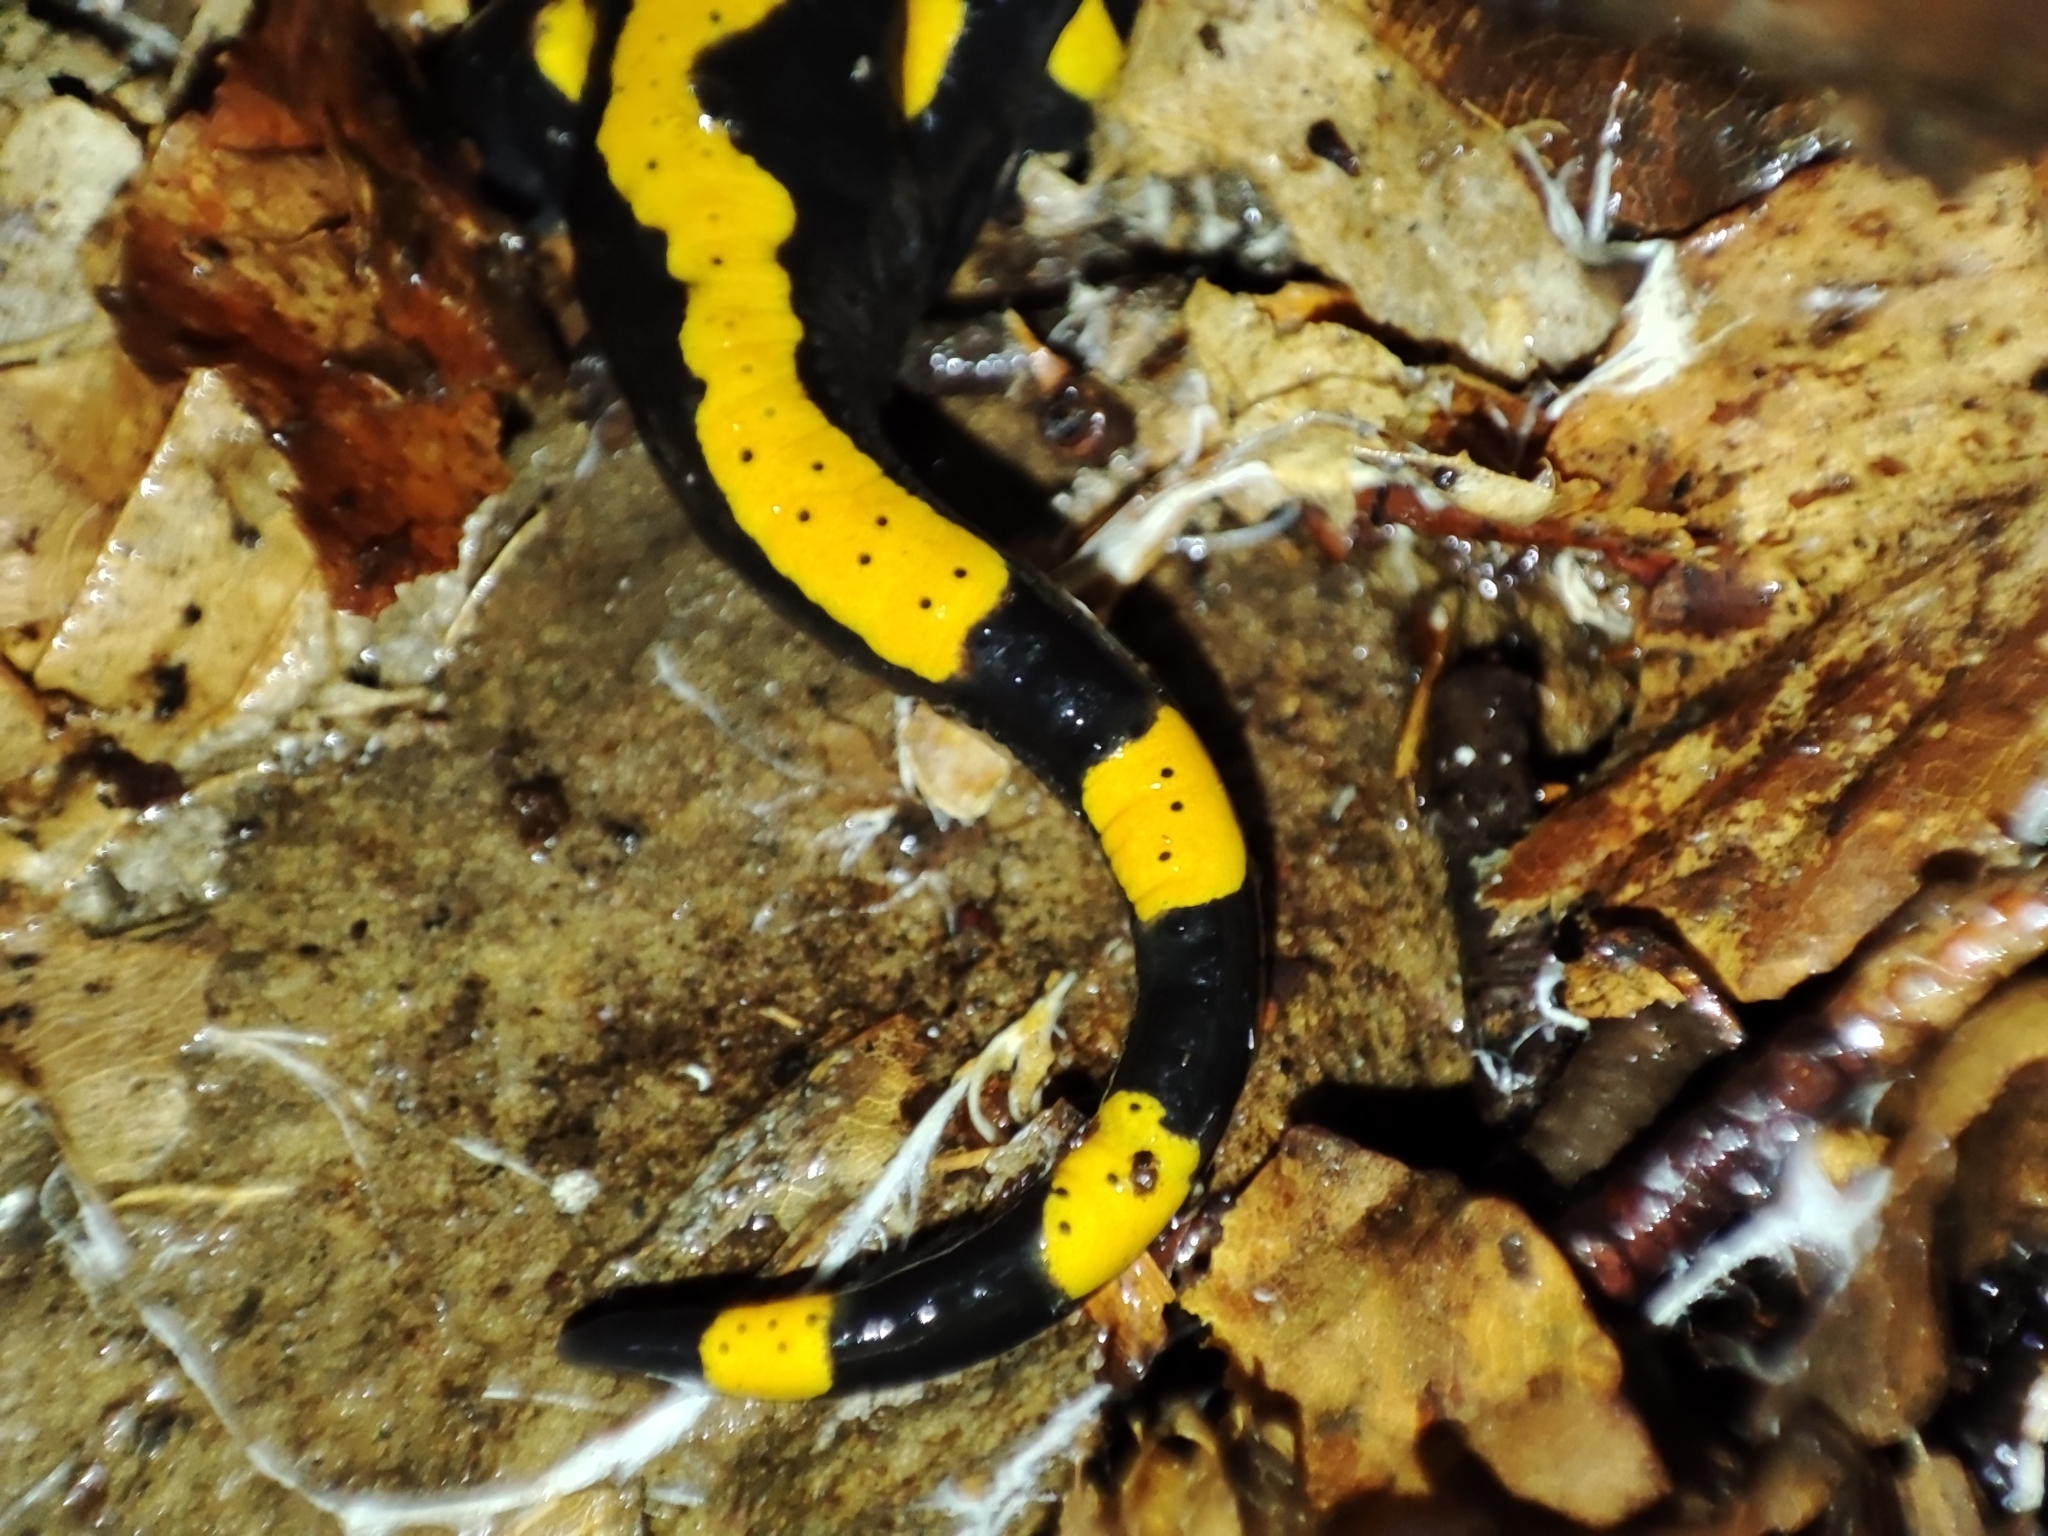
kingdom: Animalia
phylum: Chordata
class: Amphibia
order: Caudata
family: Salamandridae
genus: Salamandra
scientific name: Salamandra salamandra
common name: Fire salamander
